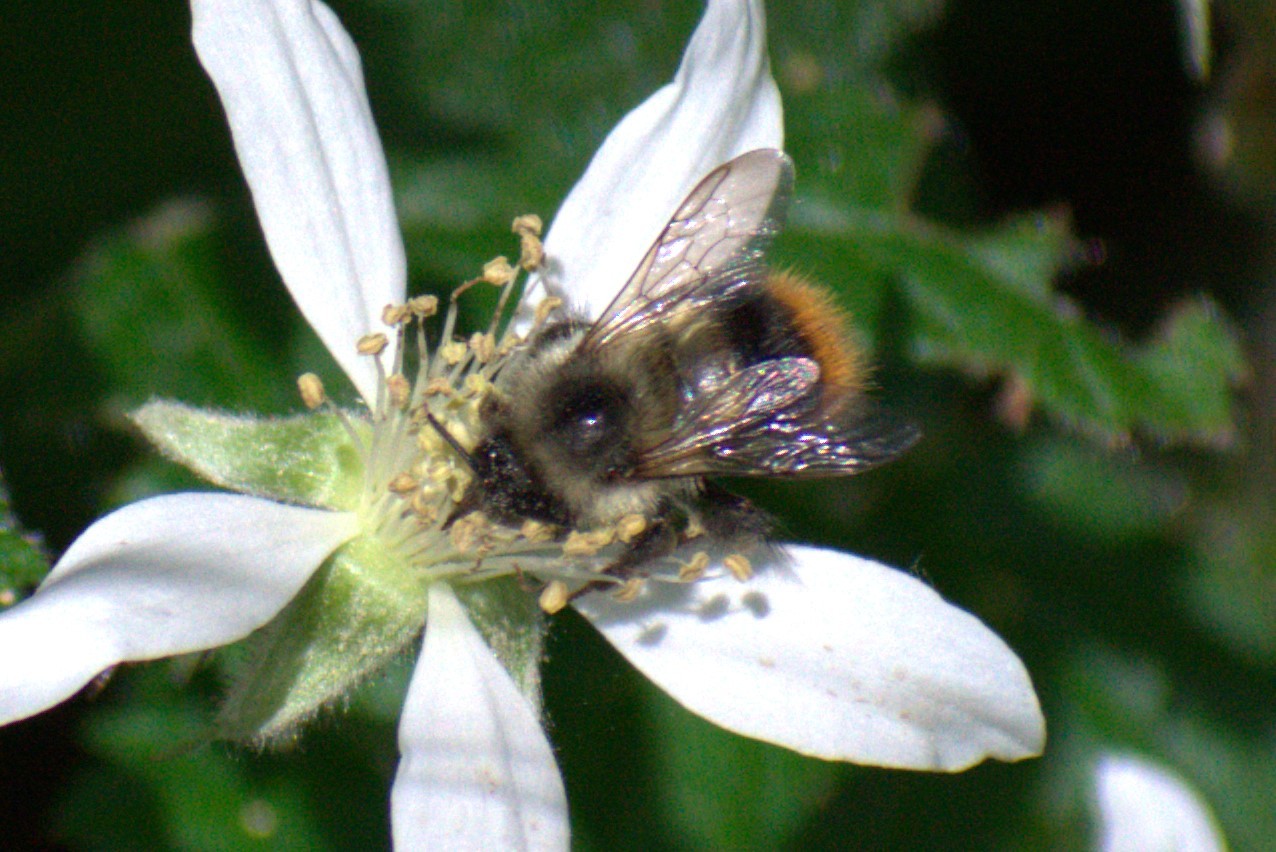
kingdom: Animalia
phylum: Arthropoda
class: Insecta
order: Hymenoptera
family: Apidae
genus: Bombus
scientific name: Bombus mixtus
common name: Fuzzy-horned bumble bee
